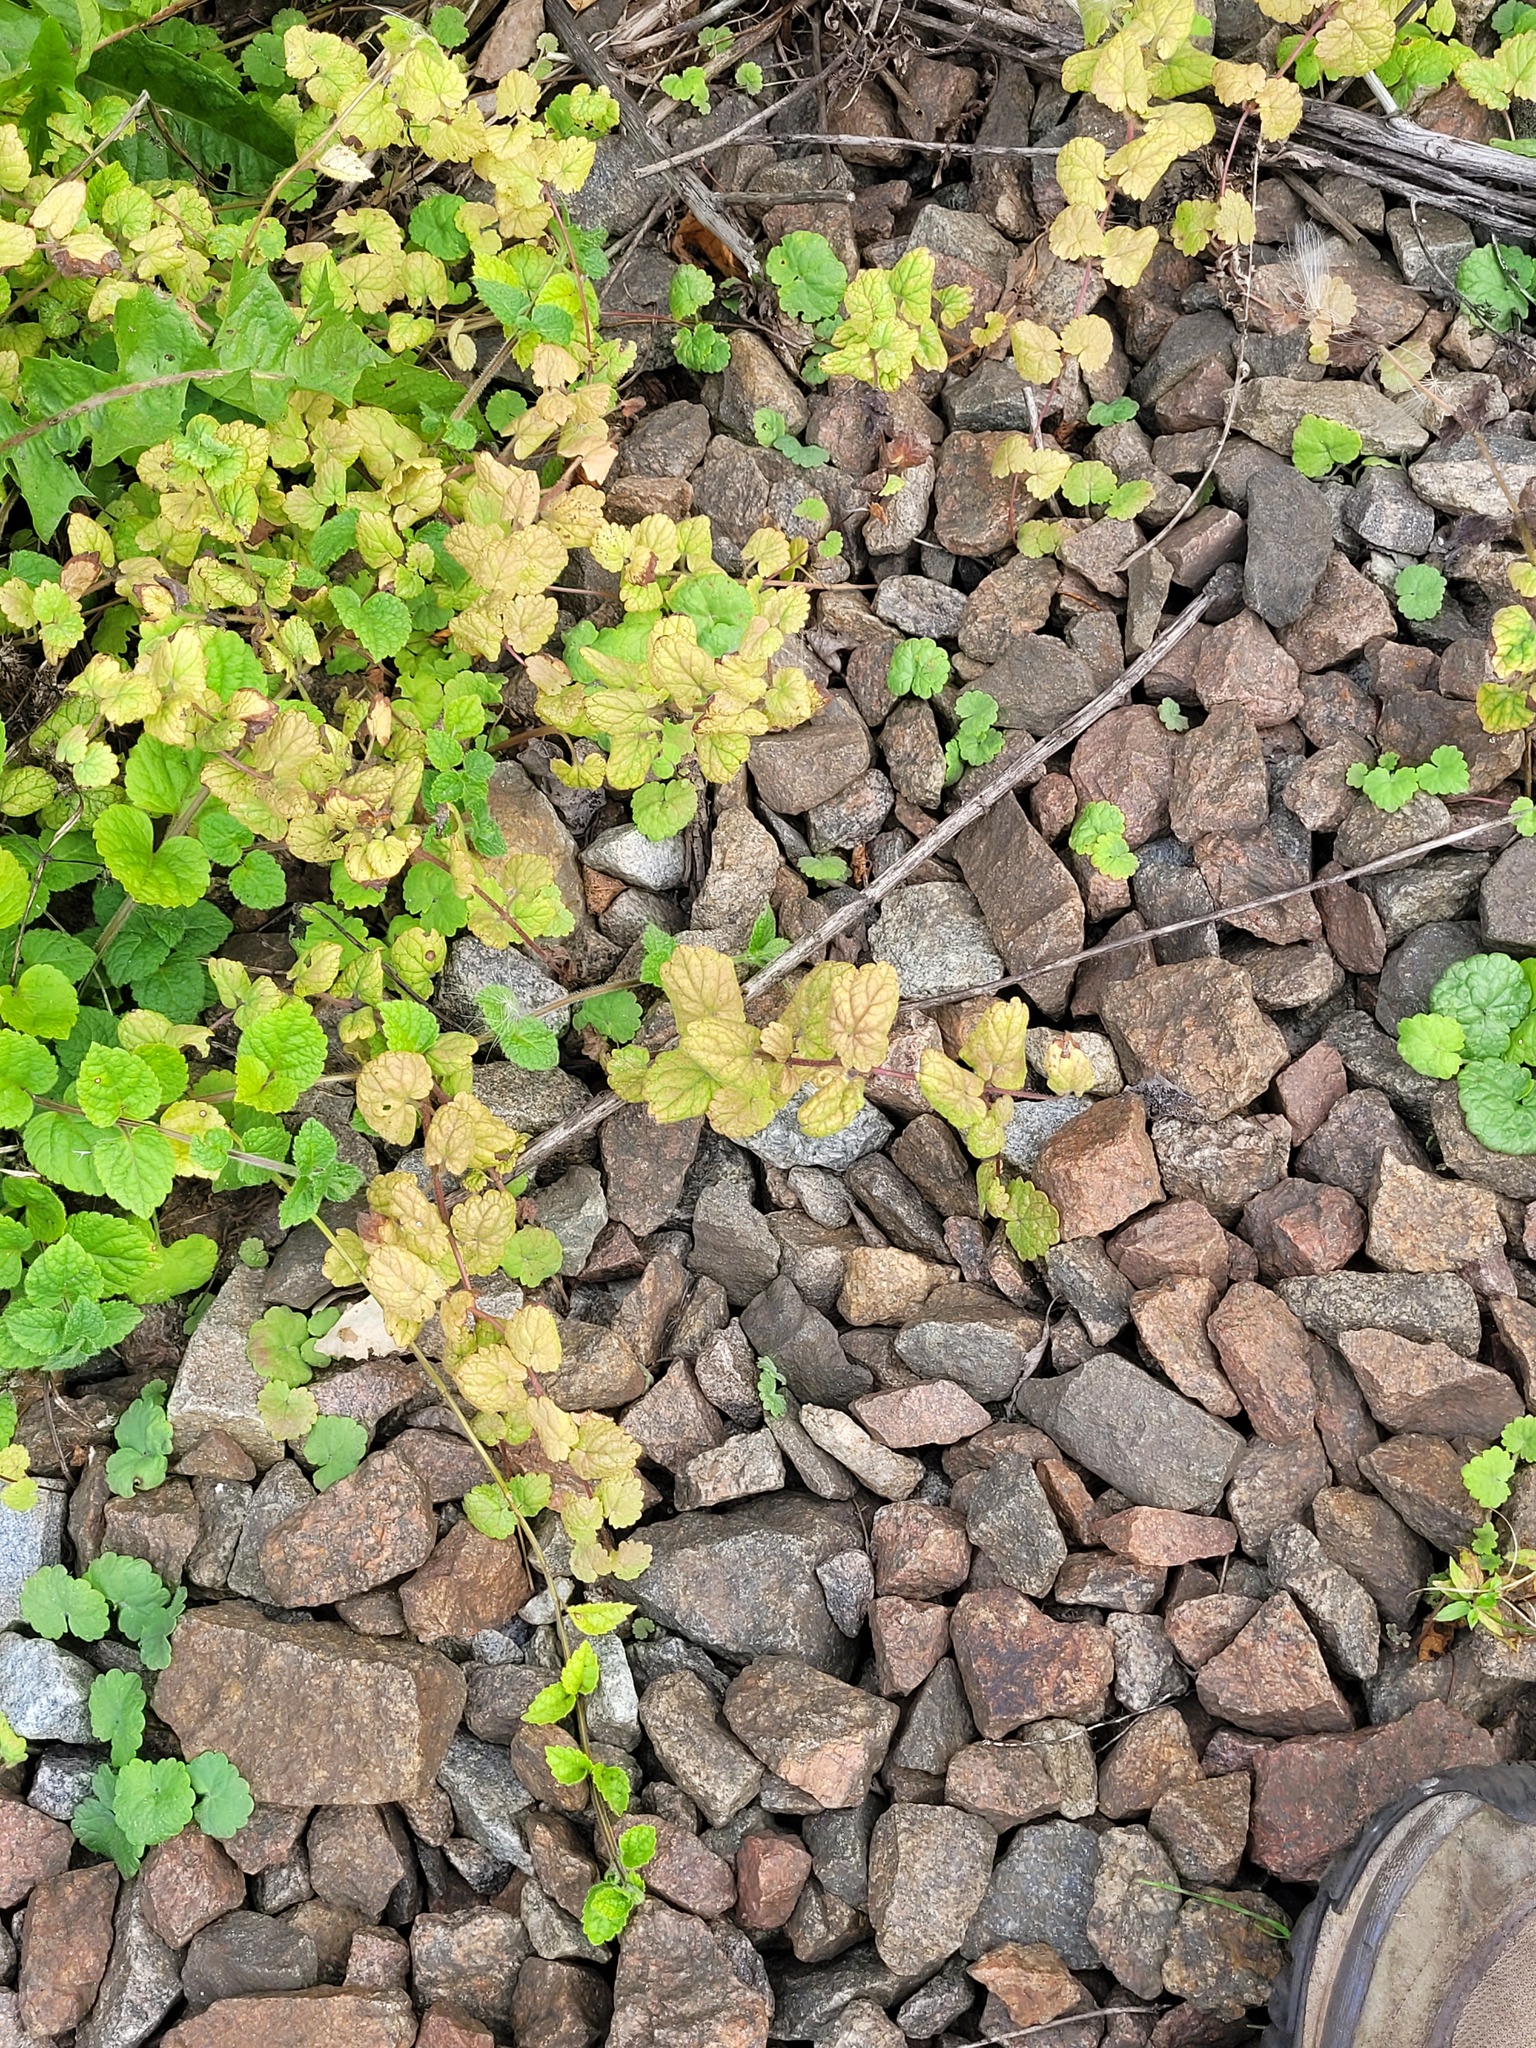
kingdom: Plantae
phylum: Tracheophyta
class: Magnoliopsida
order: Lamiales
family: Lamiaceae
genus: Glechoma
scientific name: Glechoma hederacea
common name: Ground ivy
